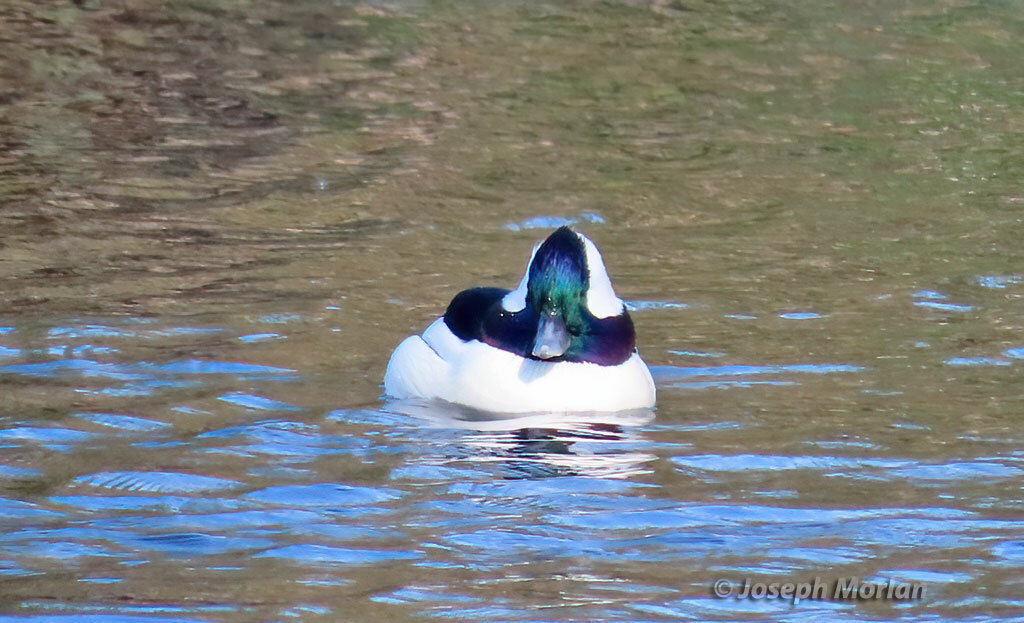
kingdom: Animalia
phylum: Chordata
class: Aves
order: Anseriformes
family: Anatidae
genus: Bucephala
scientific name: Bucephala albeola
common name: Bufflehead
